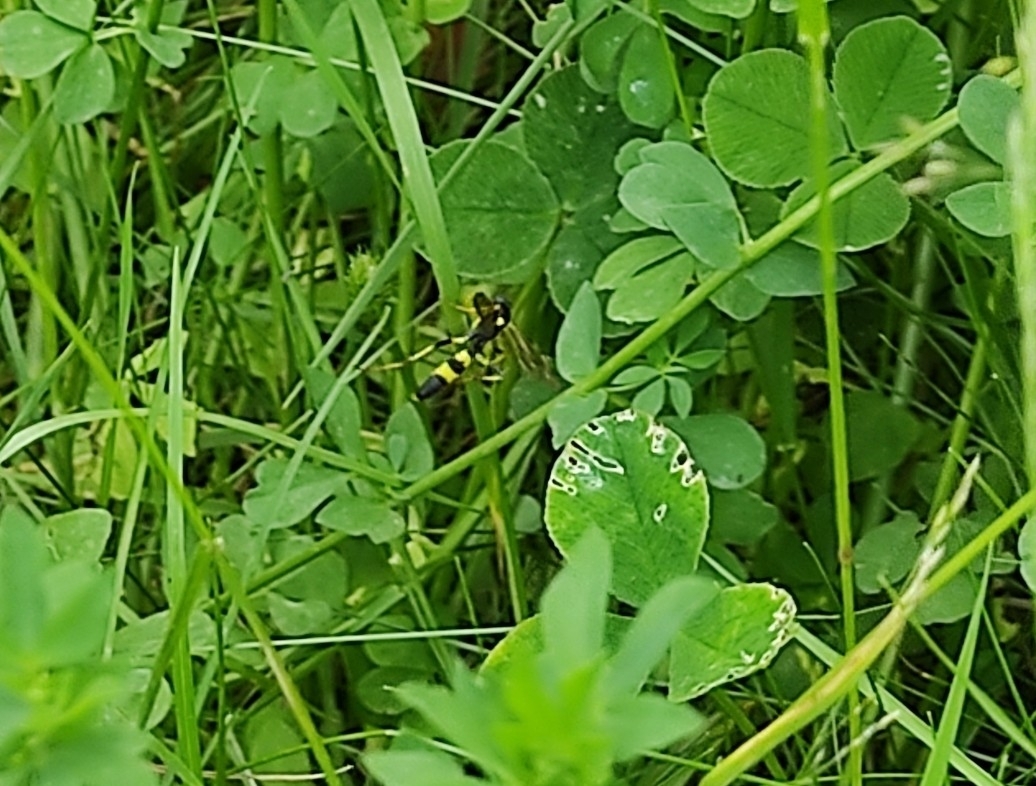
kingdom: Animalia
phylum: Arthropoda
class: Insecta
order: Hymenoptera
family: Ichneumonidae
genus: Amblyteles
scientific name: Amblyteles armatorius
